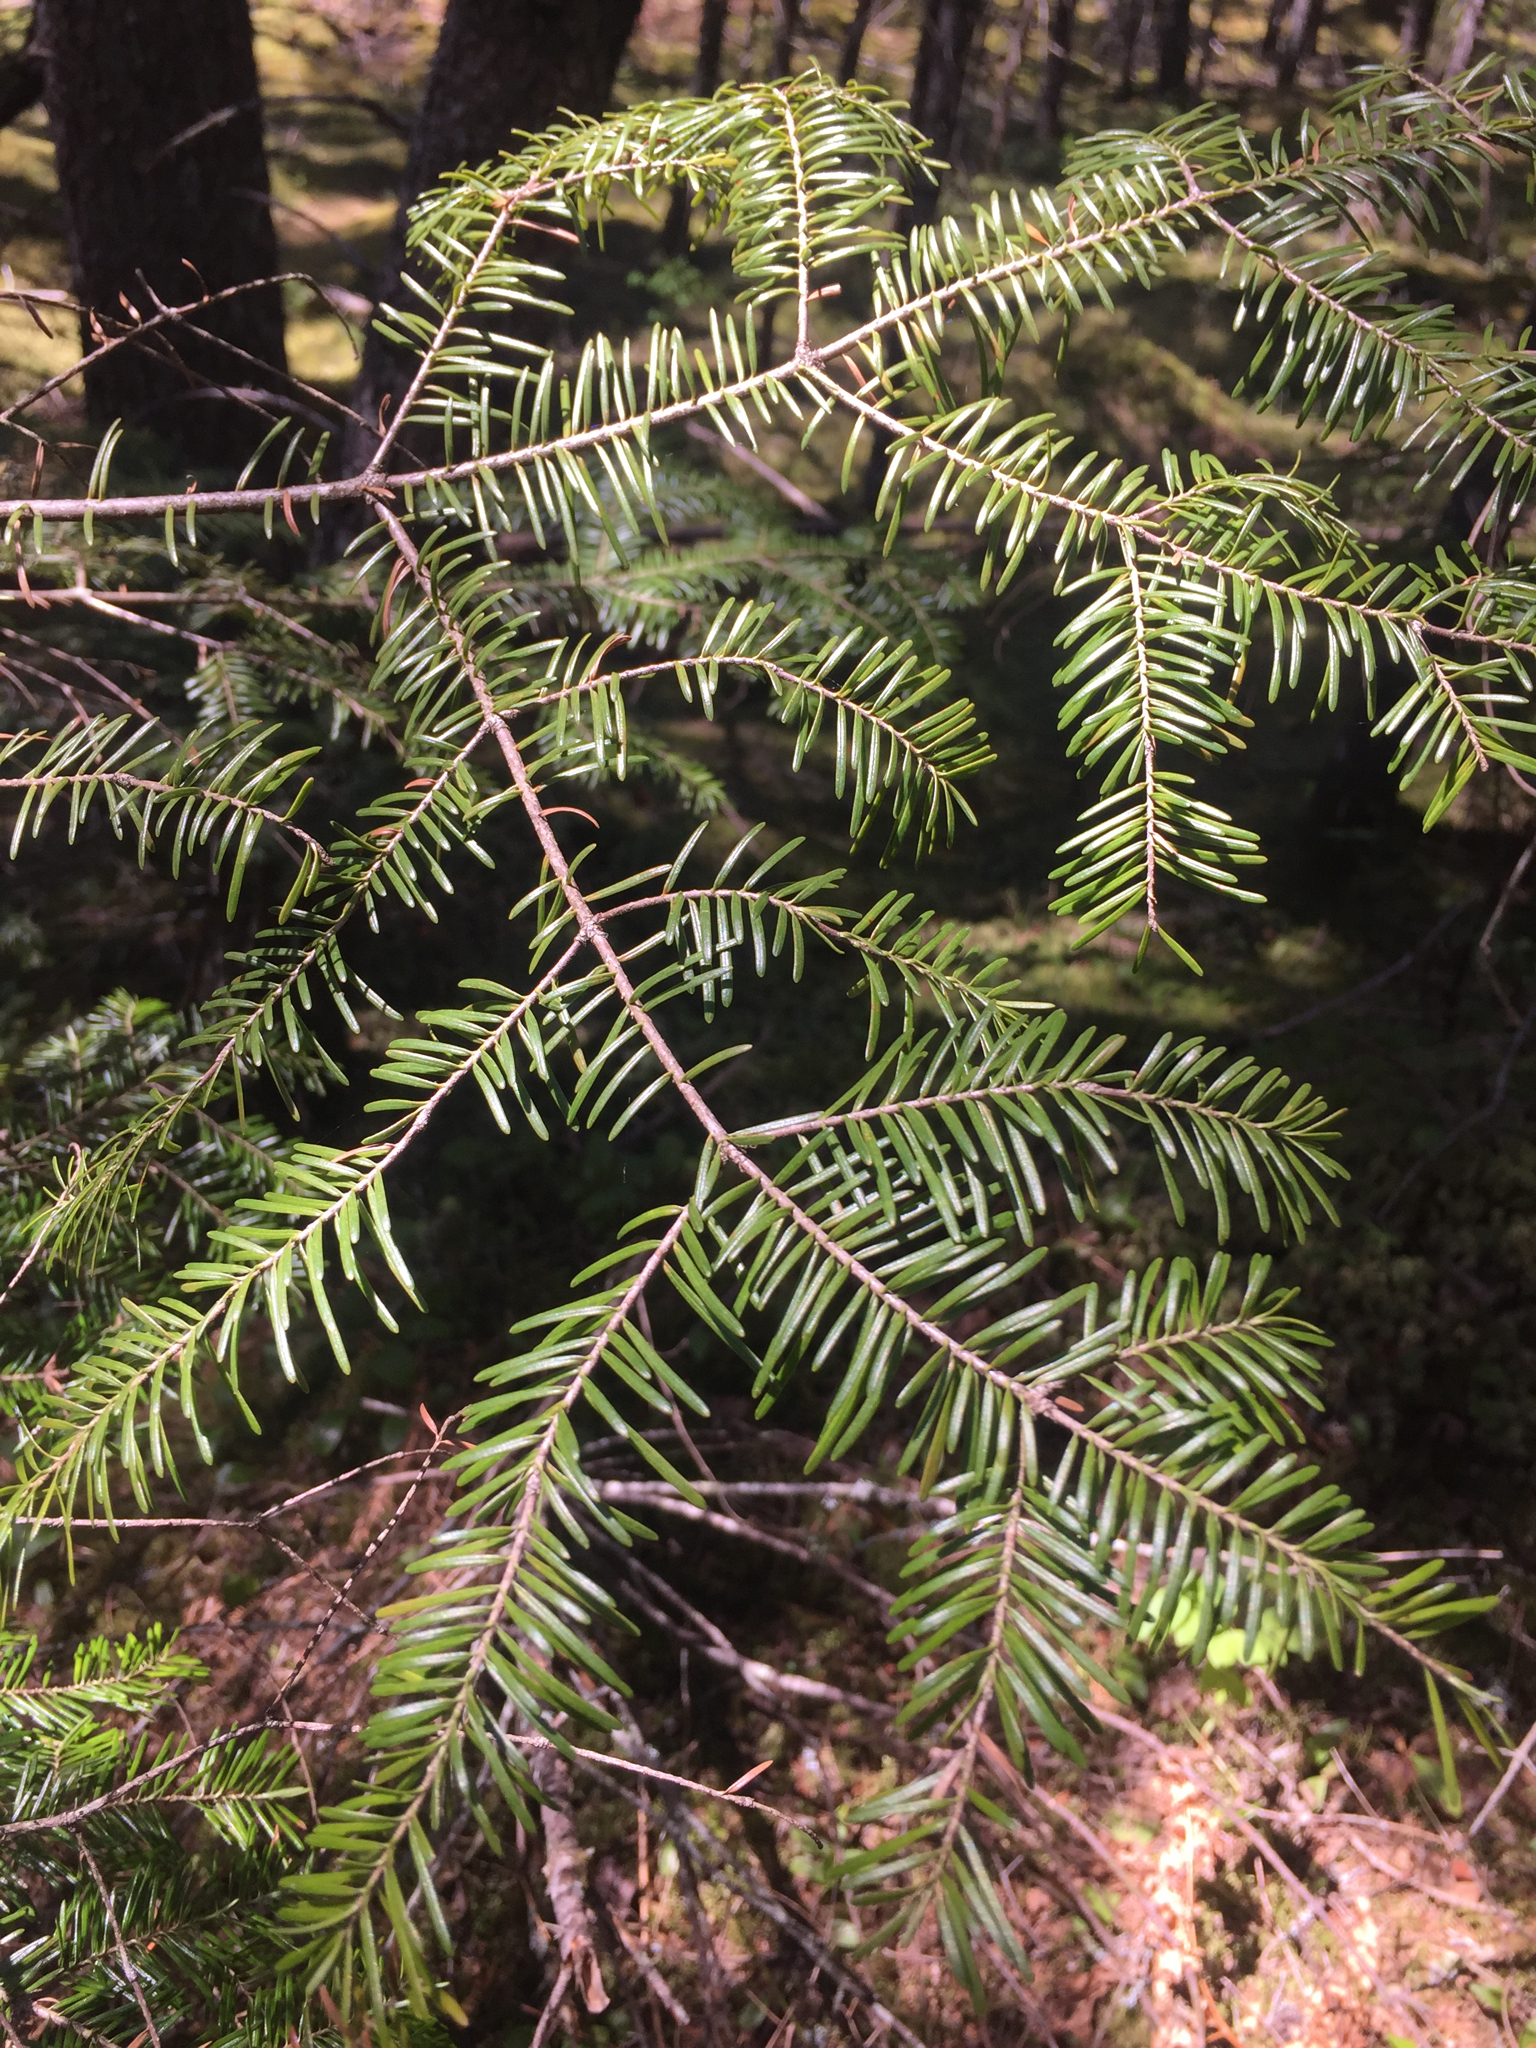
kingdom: Plantae
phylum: Tracheophyta
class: Pinopsida
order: Pinales
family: Pinaceae
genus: Abies
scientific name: Abies balsamea
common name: Balsam fir
